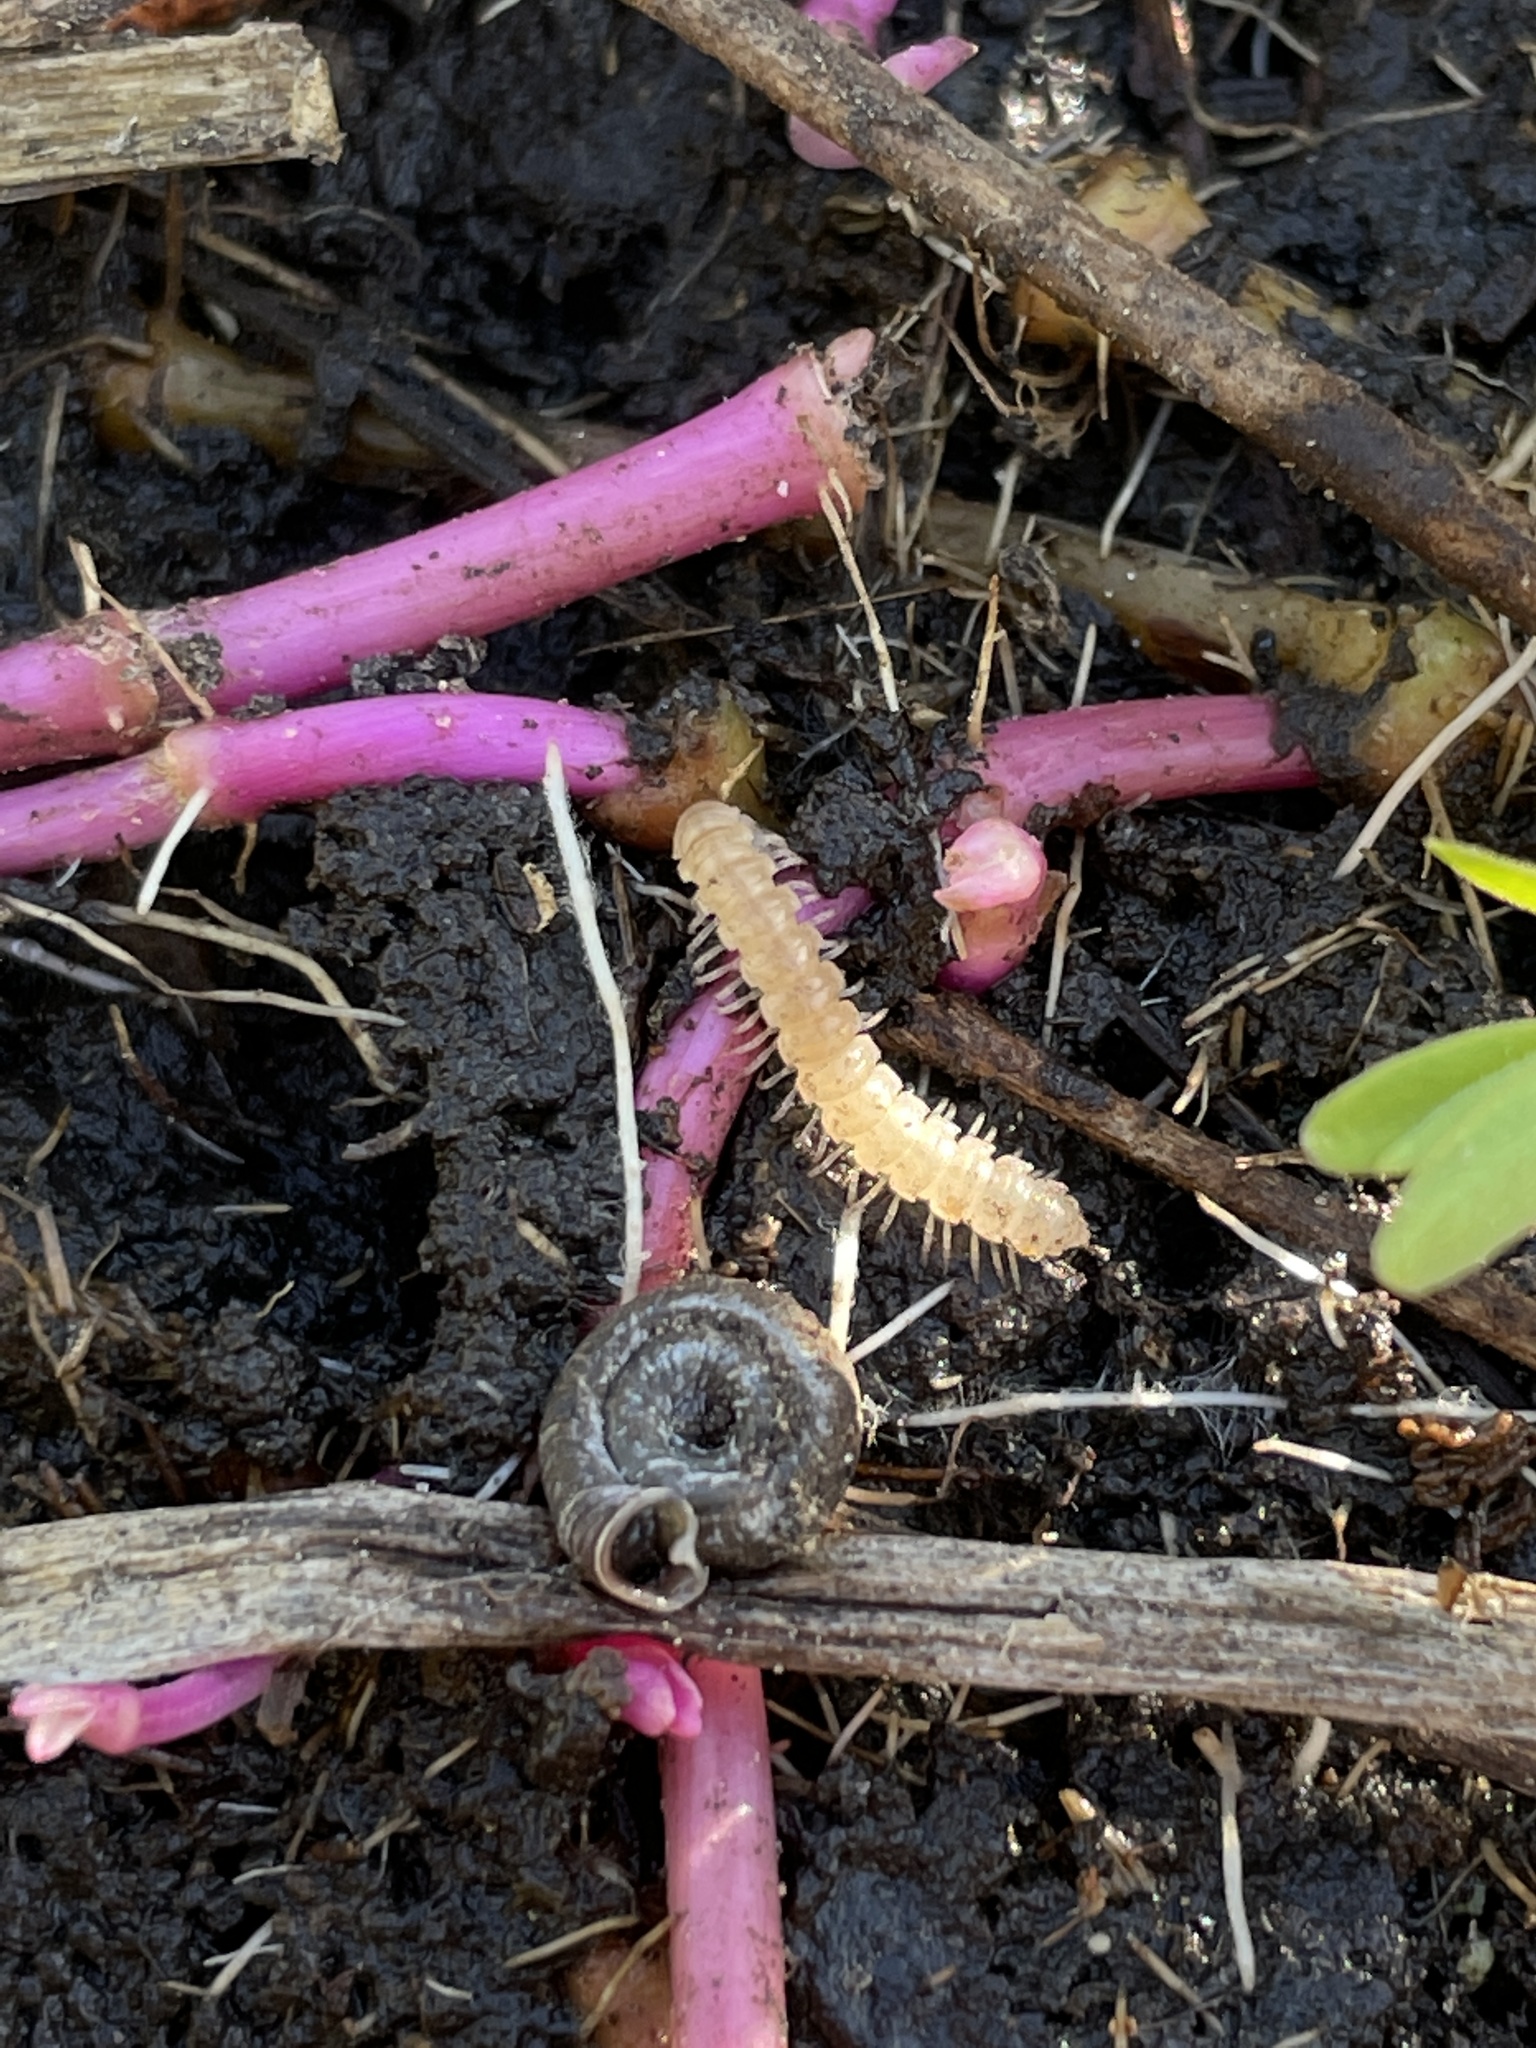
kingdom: Animalia
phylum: Arthropoda
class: Diplopoda
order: Polydesmida
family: Paradoxosomatidae
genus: Oxidus
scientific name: Oxidus gracilis
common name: Greenhouse millipede
